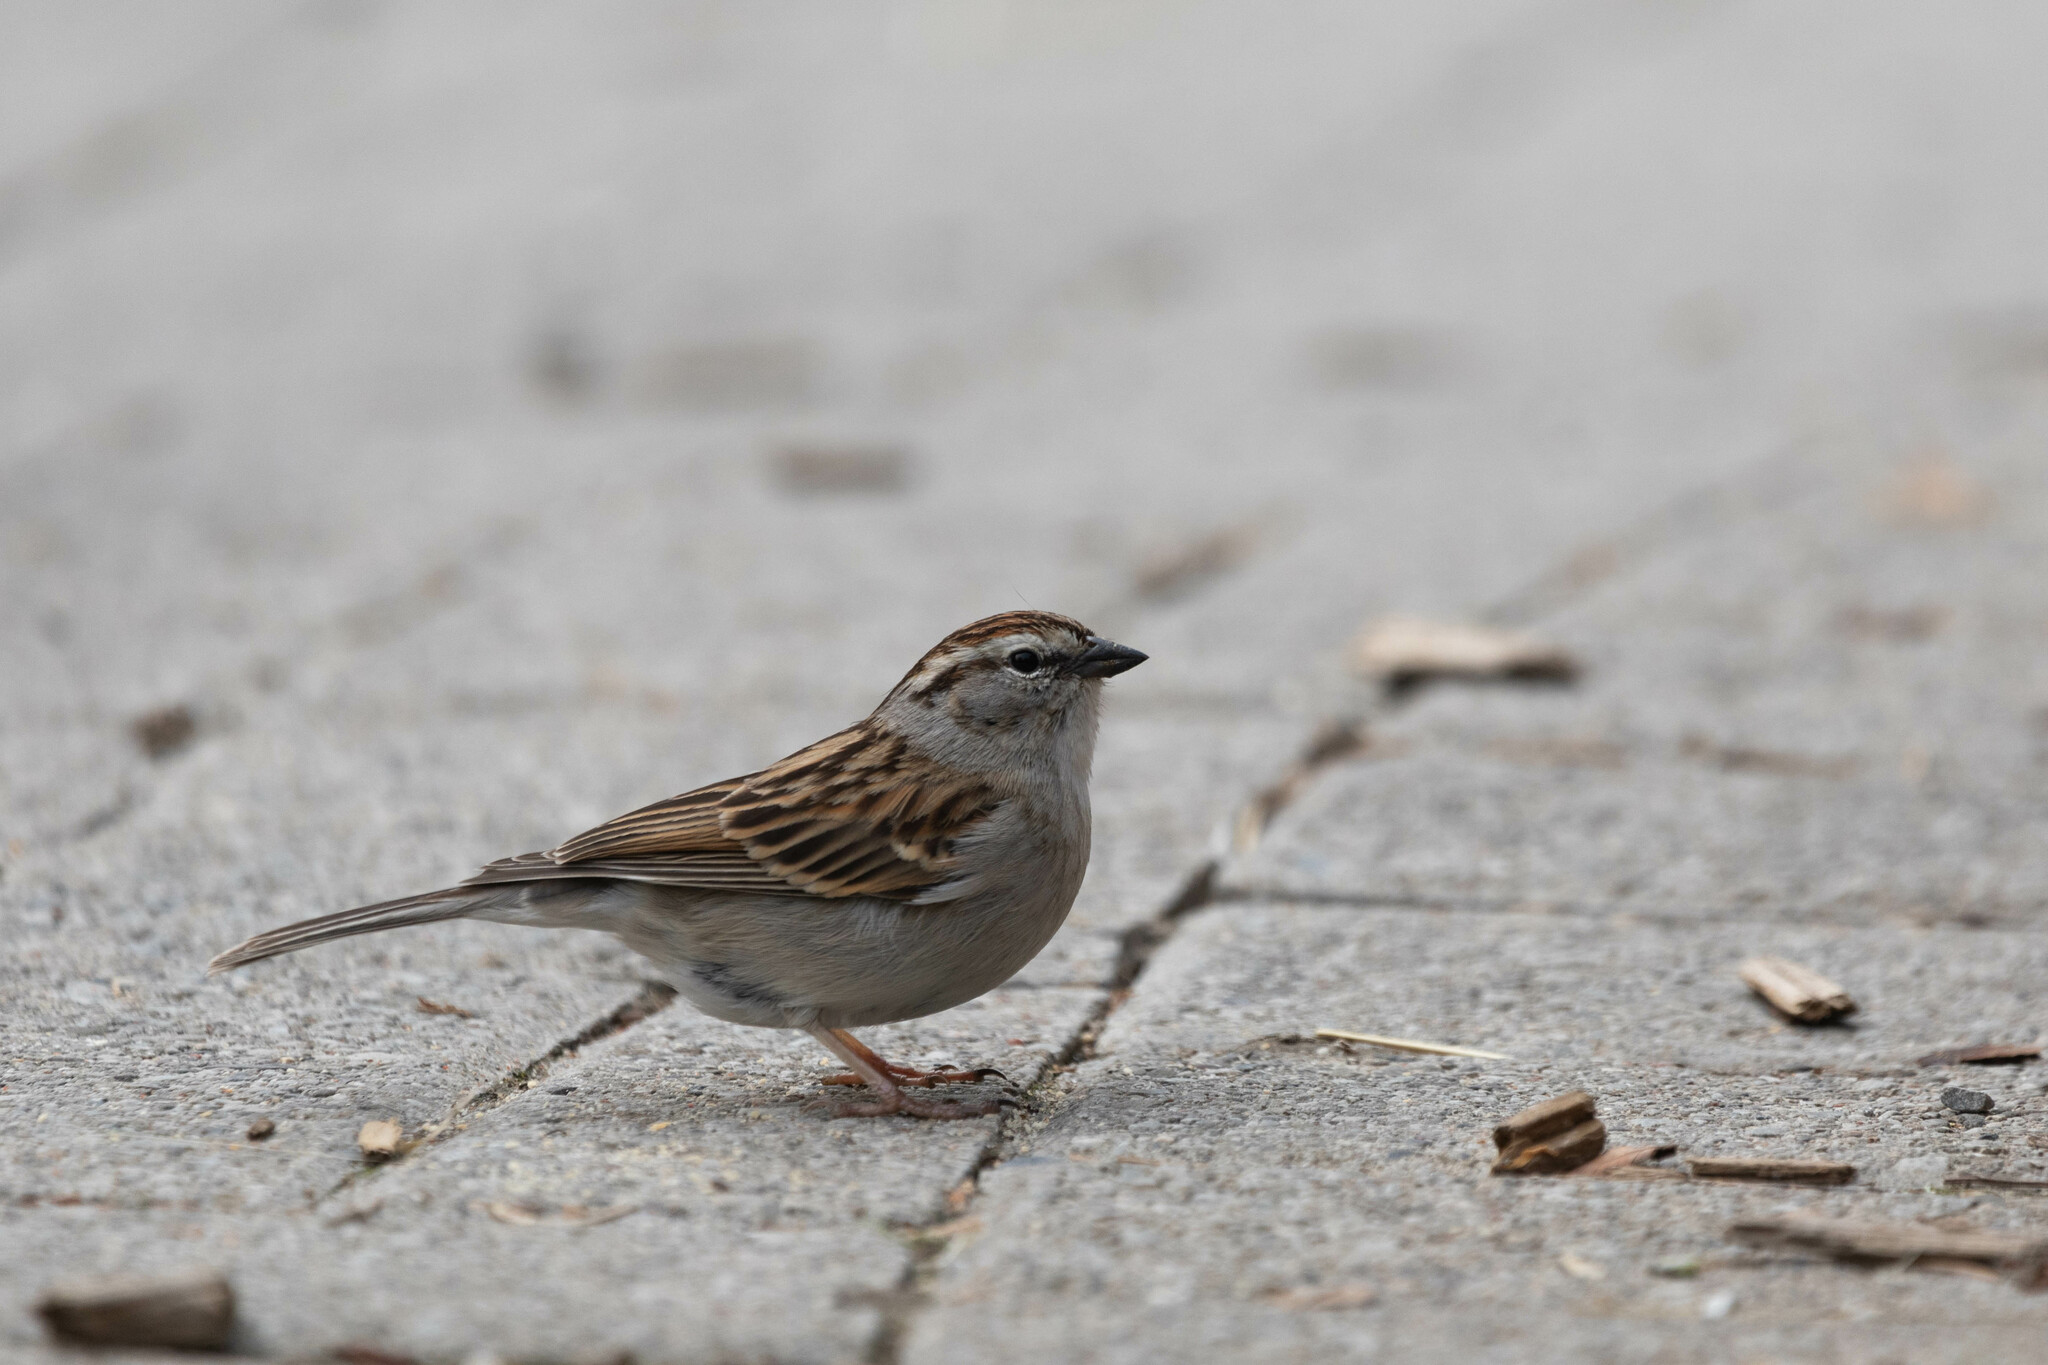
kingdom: Animalia
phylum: Chordata
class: Aves
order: Passeriformes
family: Passerellidae
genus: Spizella
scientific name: Spizella passerina
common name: Chipping sparrow
